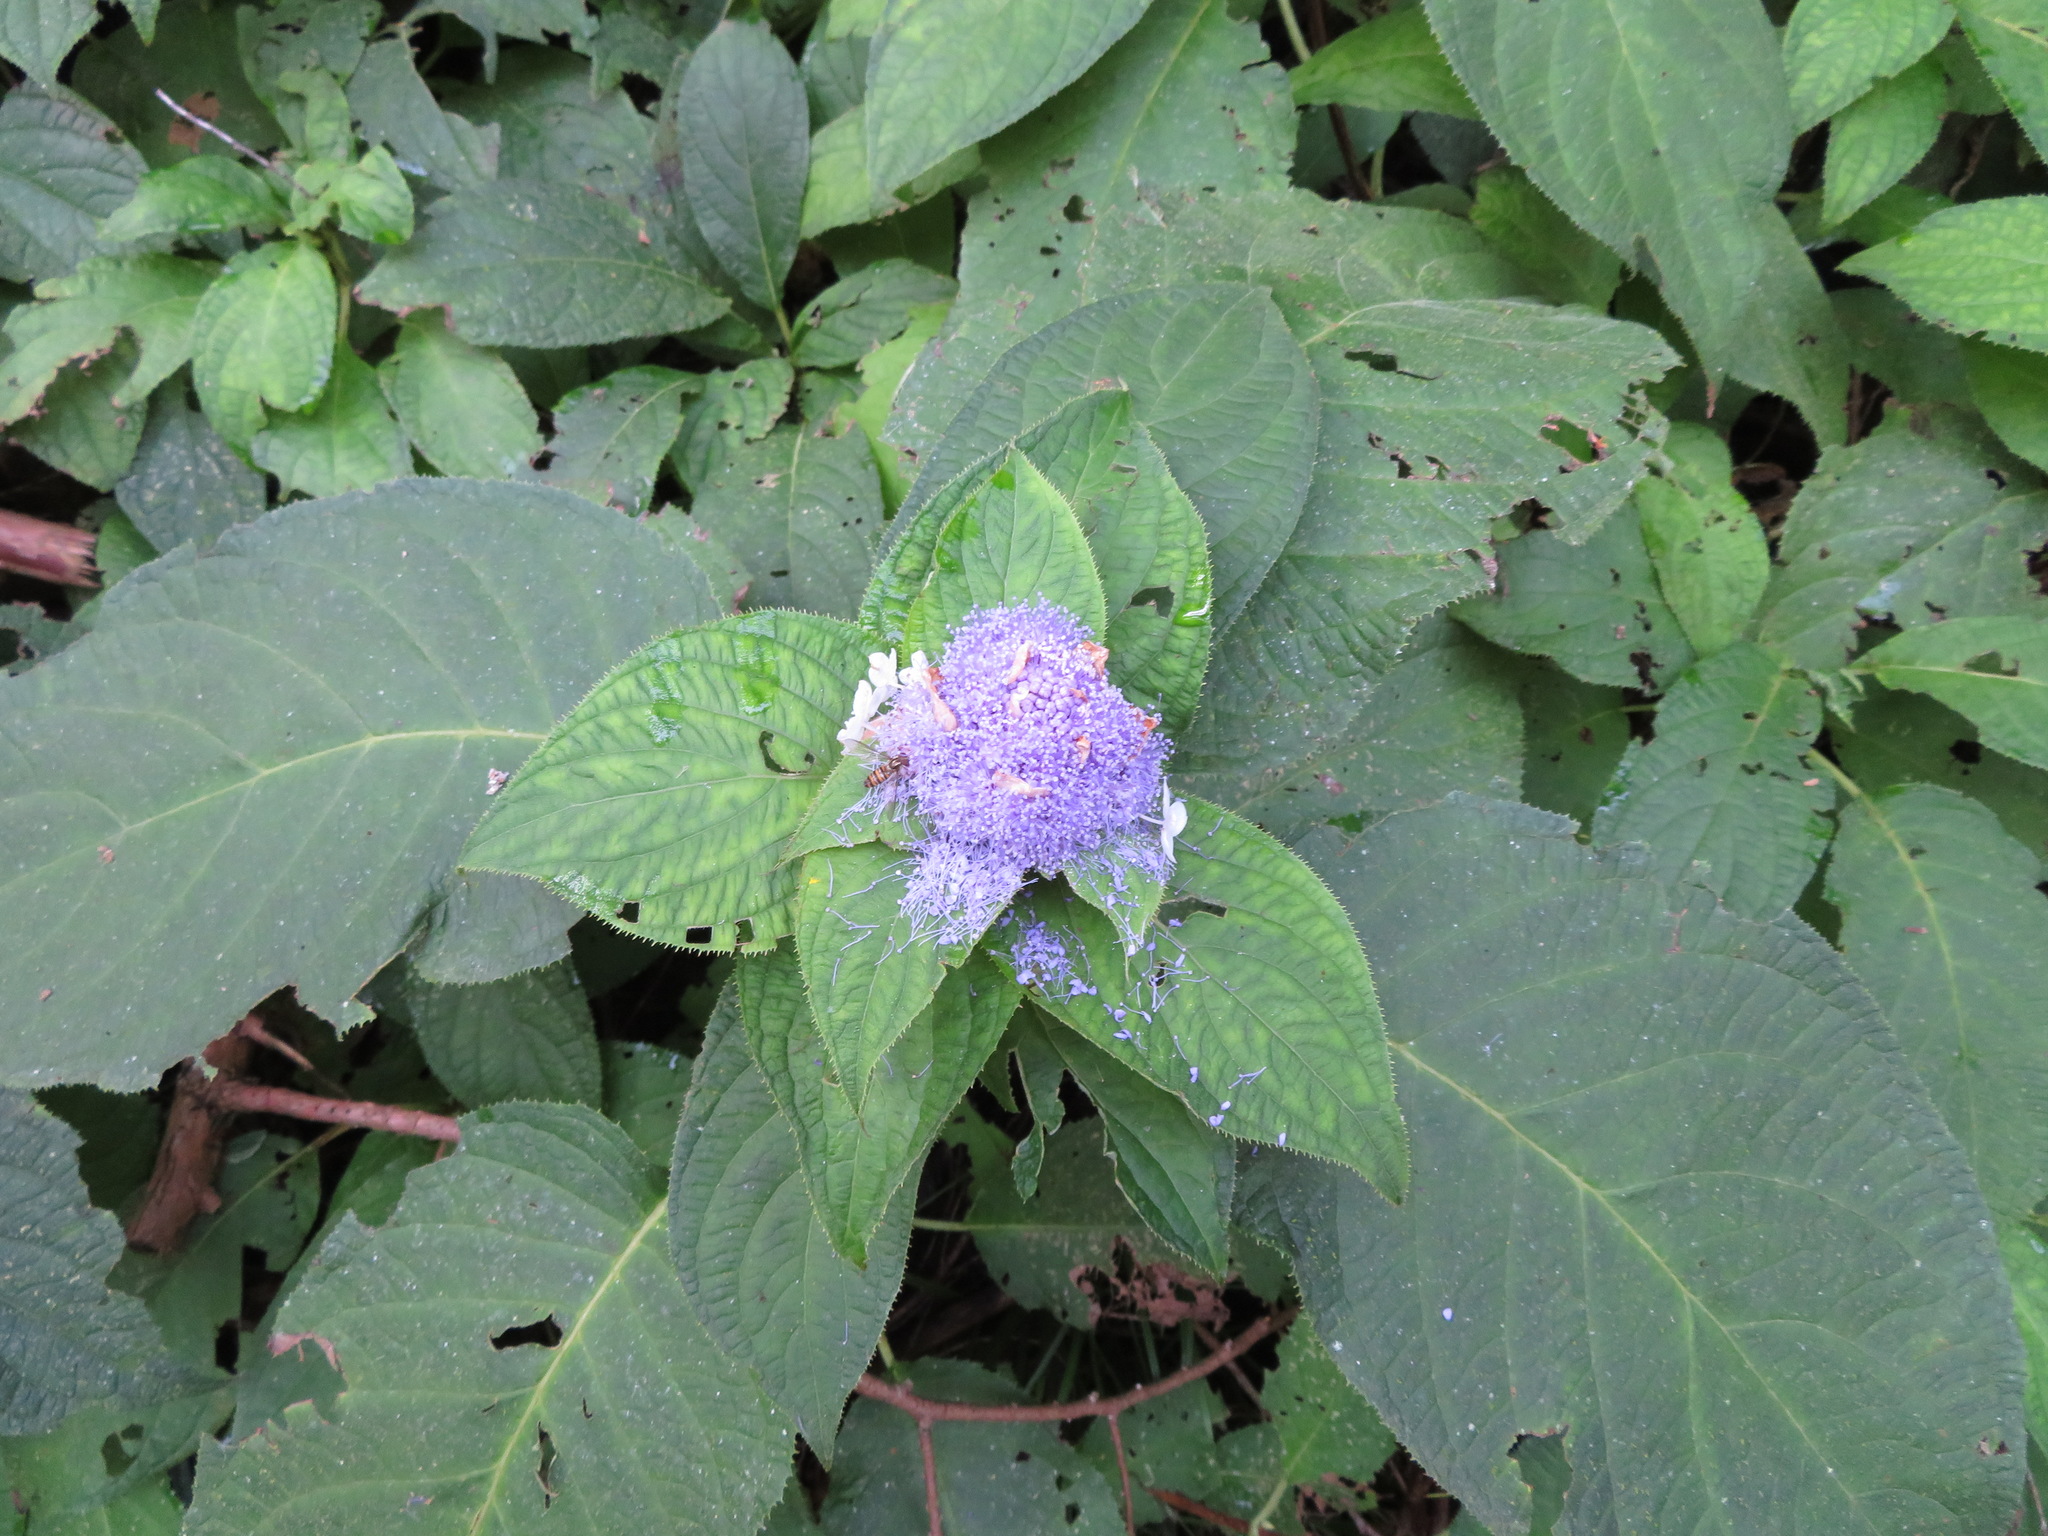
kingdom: Plantae
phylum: Tracheophyta
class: Magnoliopsida
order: Cornales
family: Hydrangeaceae
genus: Hydrangea
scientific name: Hydrangea involucrata
